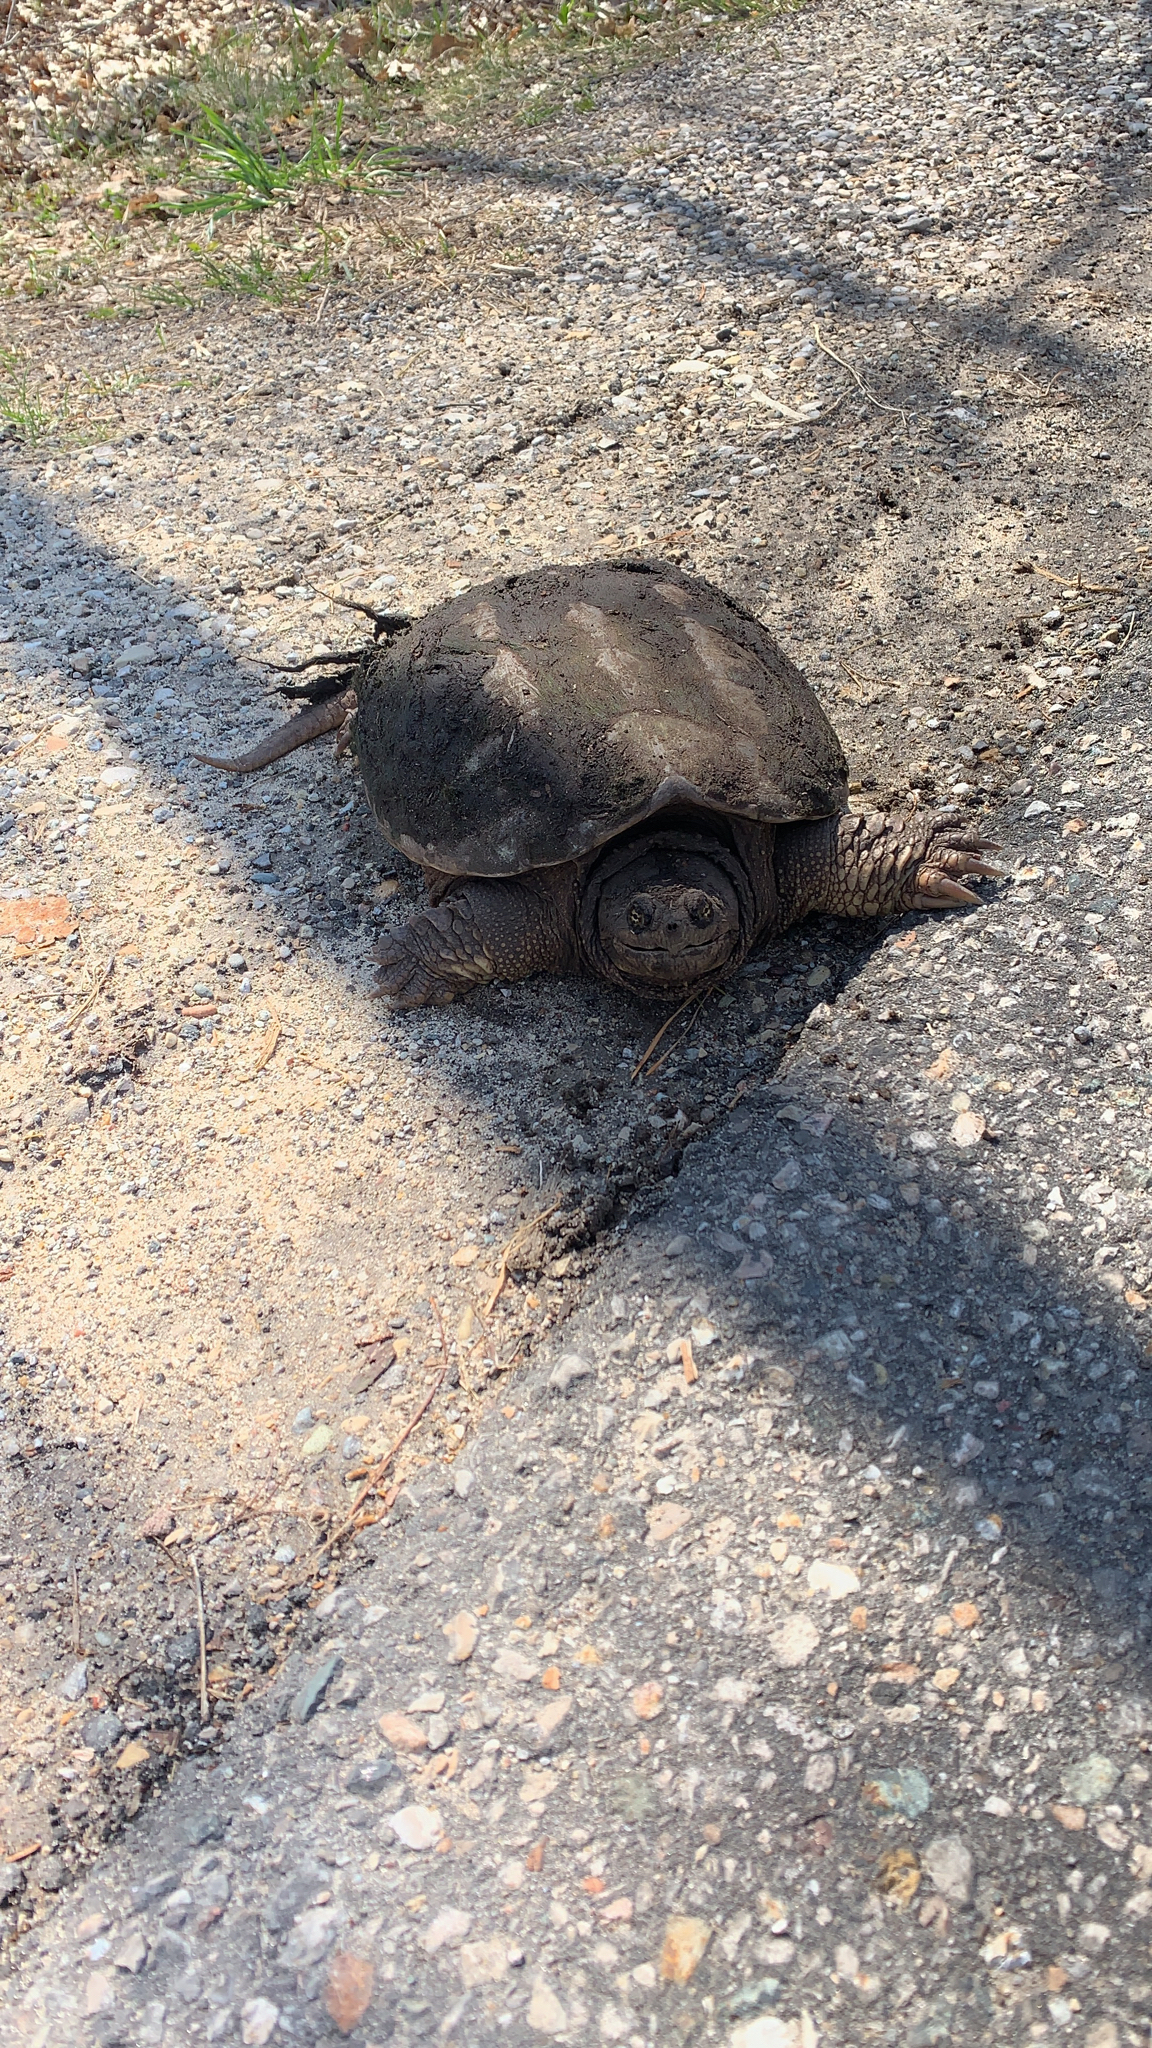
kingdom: Animalia
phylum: Chordata
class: Testudines
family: Chelydridae
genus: Chelydra
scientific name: Chelydra serpentina
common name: Common snapping turtle
